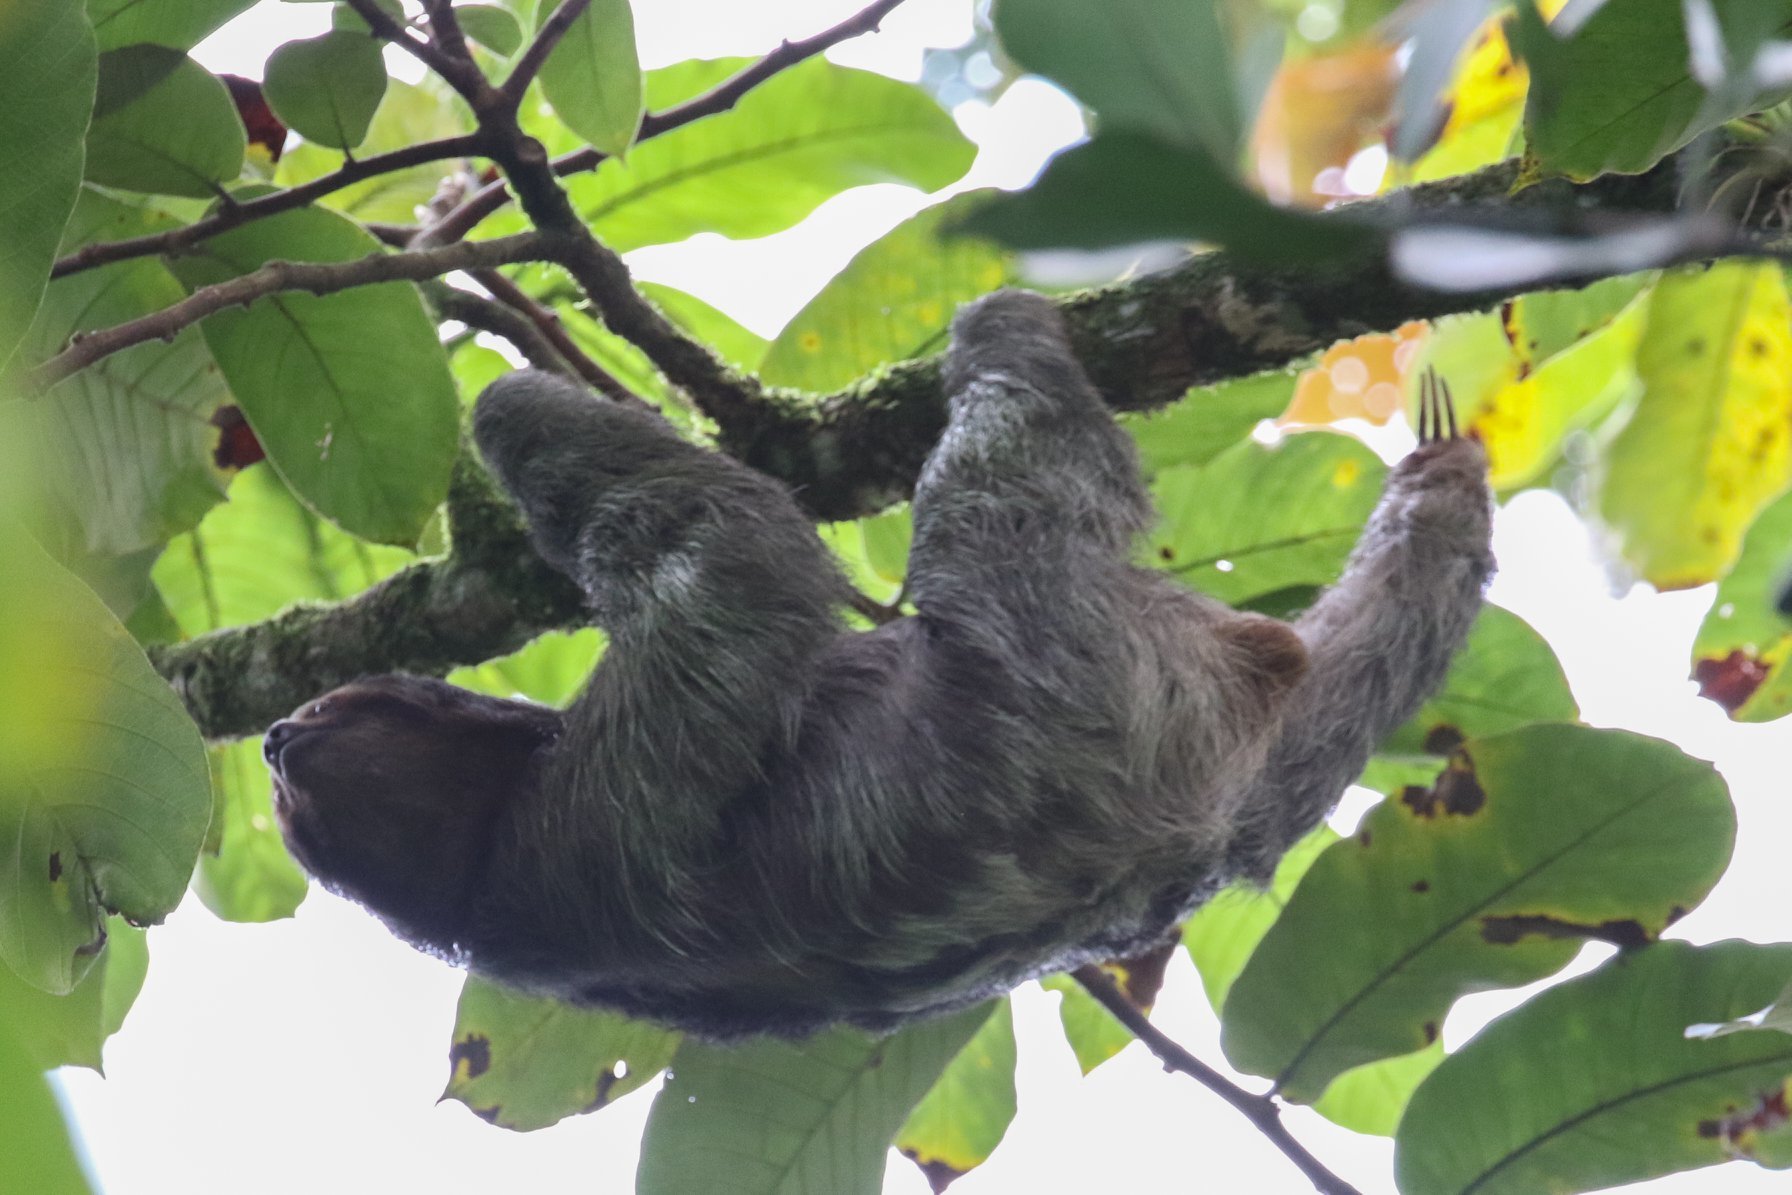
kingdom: Animalia
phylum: Chordata
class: Mammalia
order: Pilosa
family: Bradypodidae
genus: Bradypus
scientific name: Bradypus variegatus
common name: Brown-throated three-toed sloth
